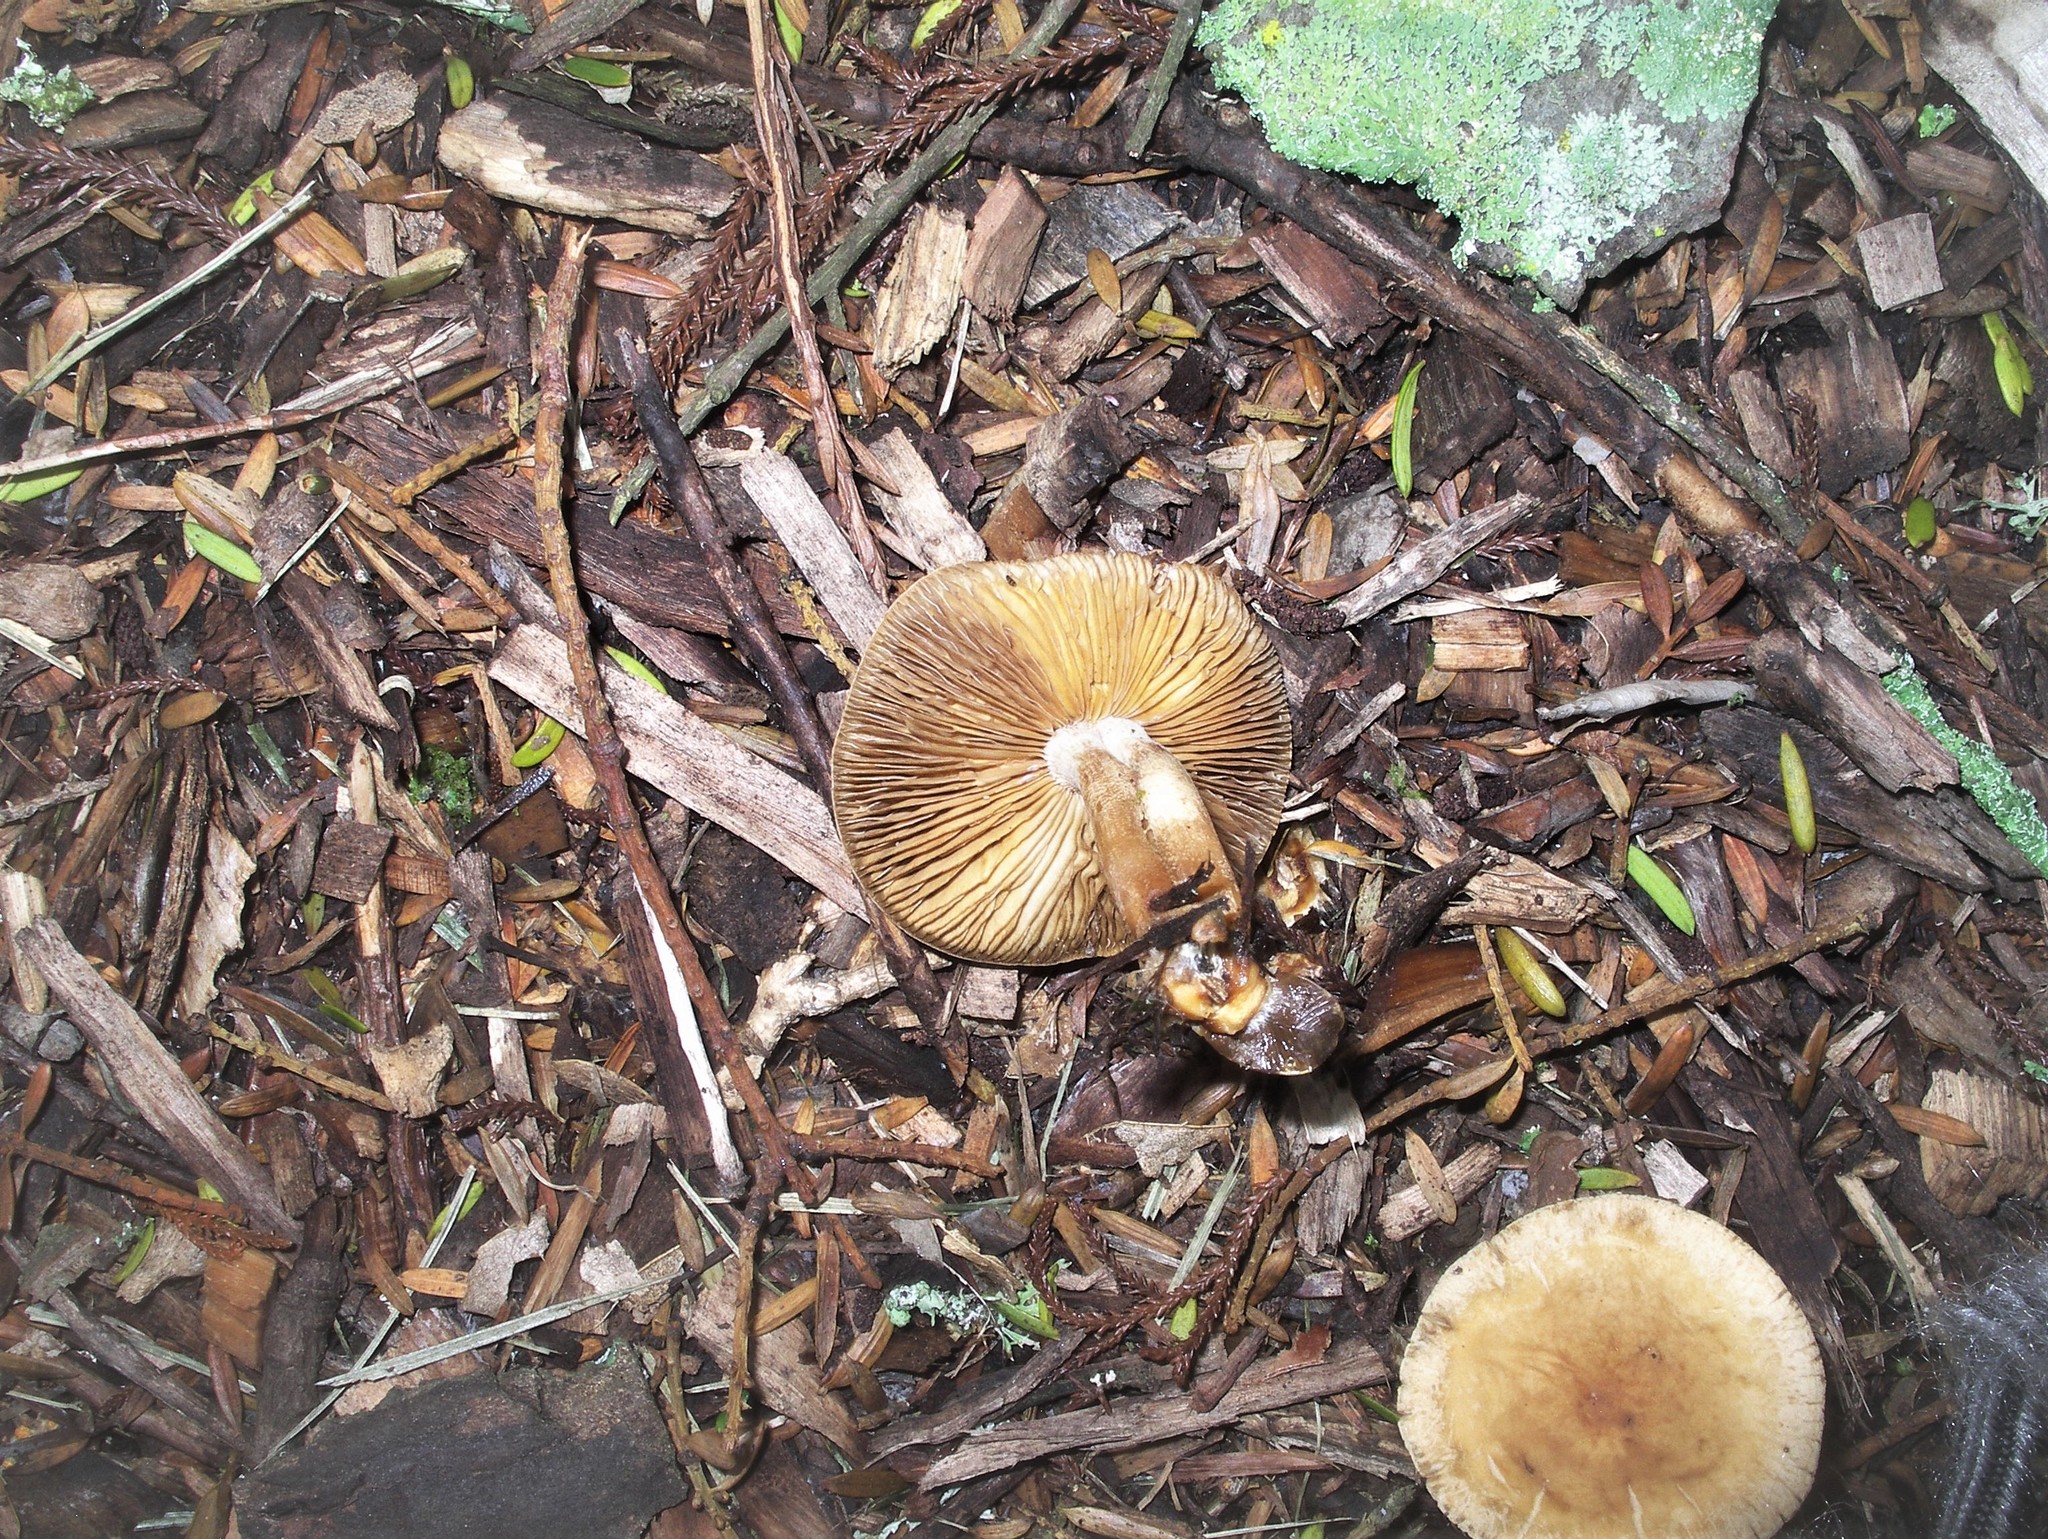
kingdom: Fungi
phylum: Basidiomycota
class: Agaricomycetes
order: Agaricales
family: Strophariaceae
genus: Agrocybe
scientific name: Agrocybe putaminum
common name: Mulch fieldcap
